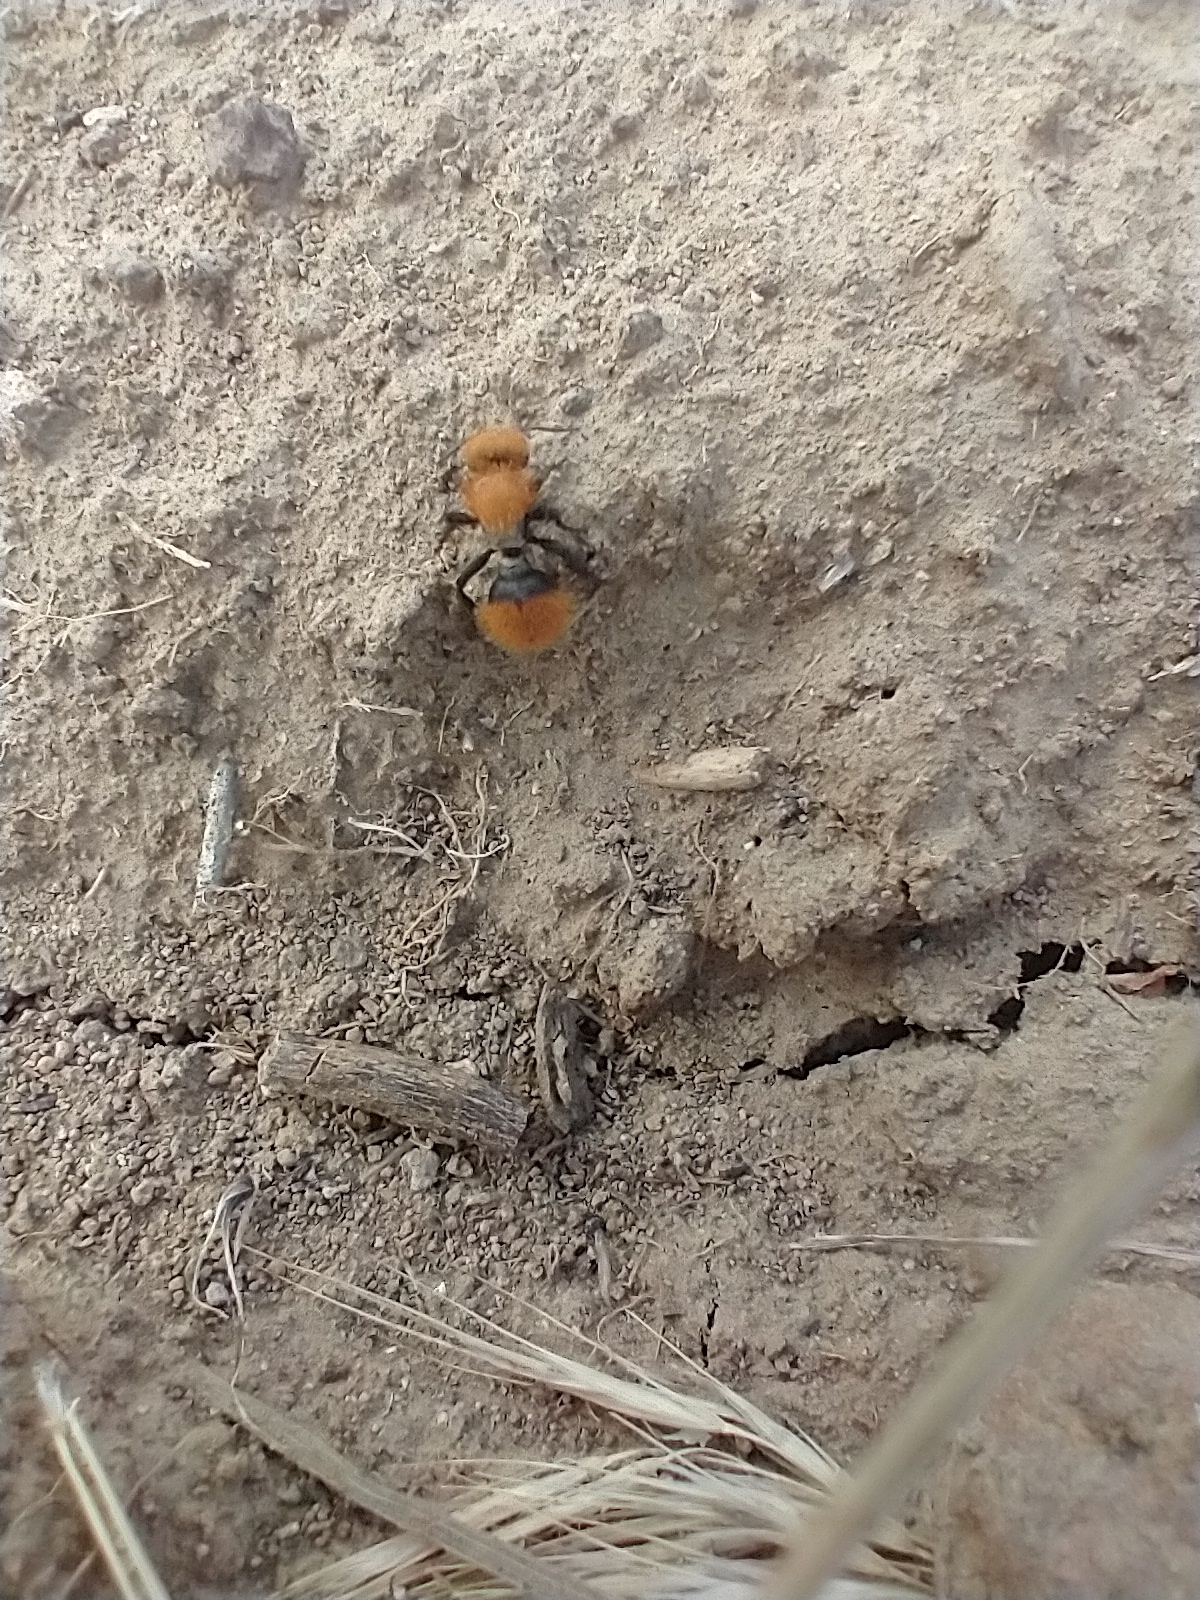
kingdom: Animalia
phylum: Arthropoda
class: Insecta
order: Hymenoptera
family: Mutillidae
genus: Dasymutilla
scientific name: Dasymutilla
